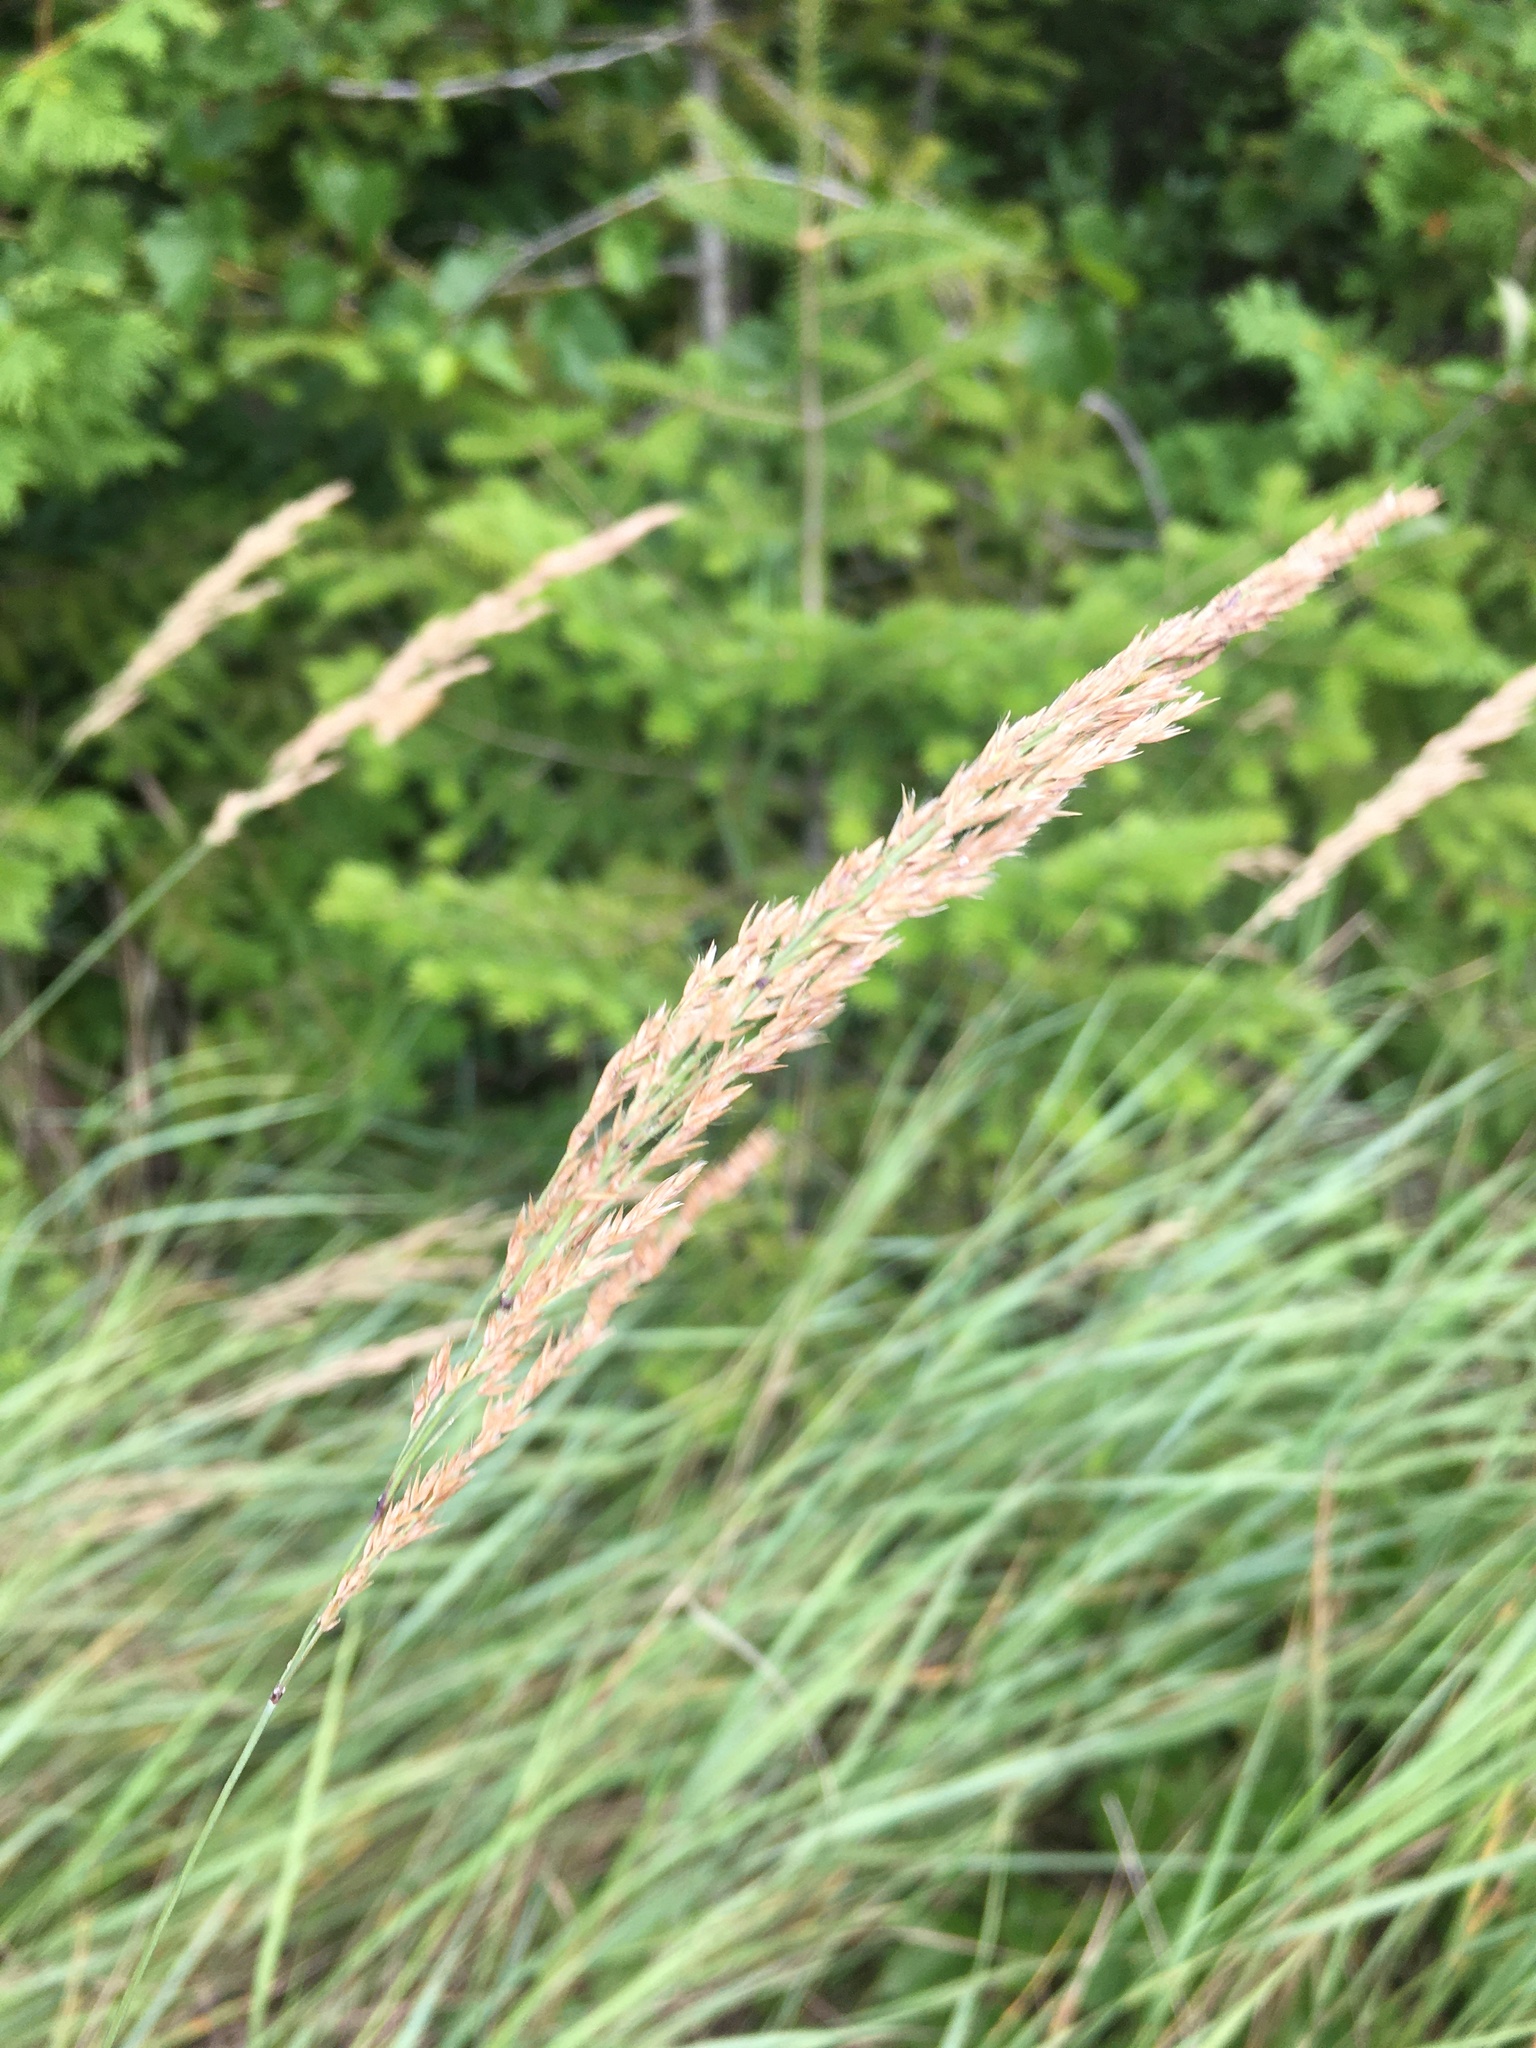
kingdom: Plantae
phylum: Tracheophyta
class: Liliopsida
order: Poales
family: Poaceae
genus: Calamagrostis
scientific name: Calamagrostis canadensis
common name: Canada bluejoint
